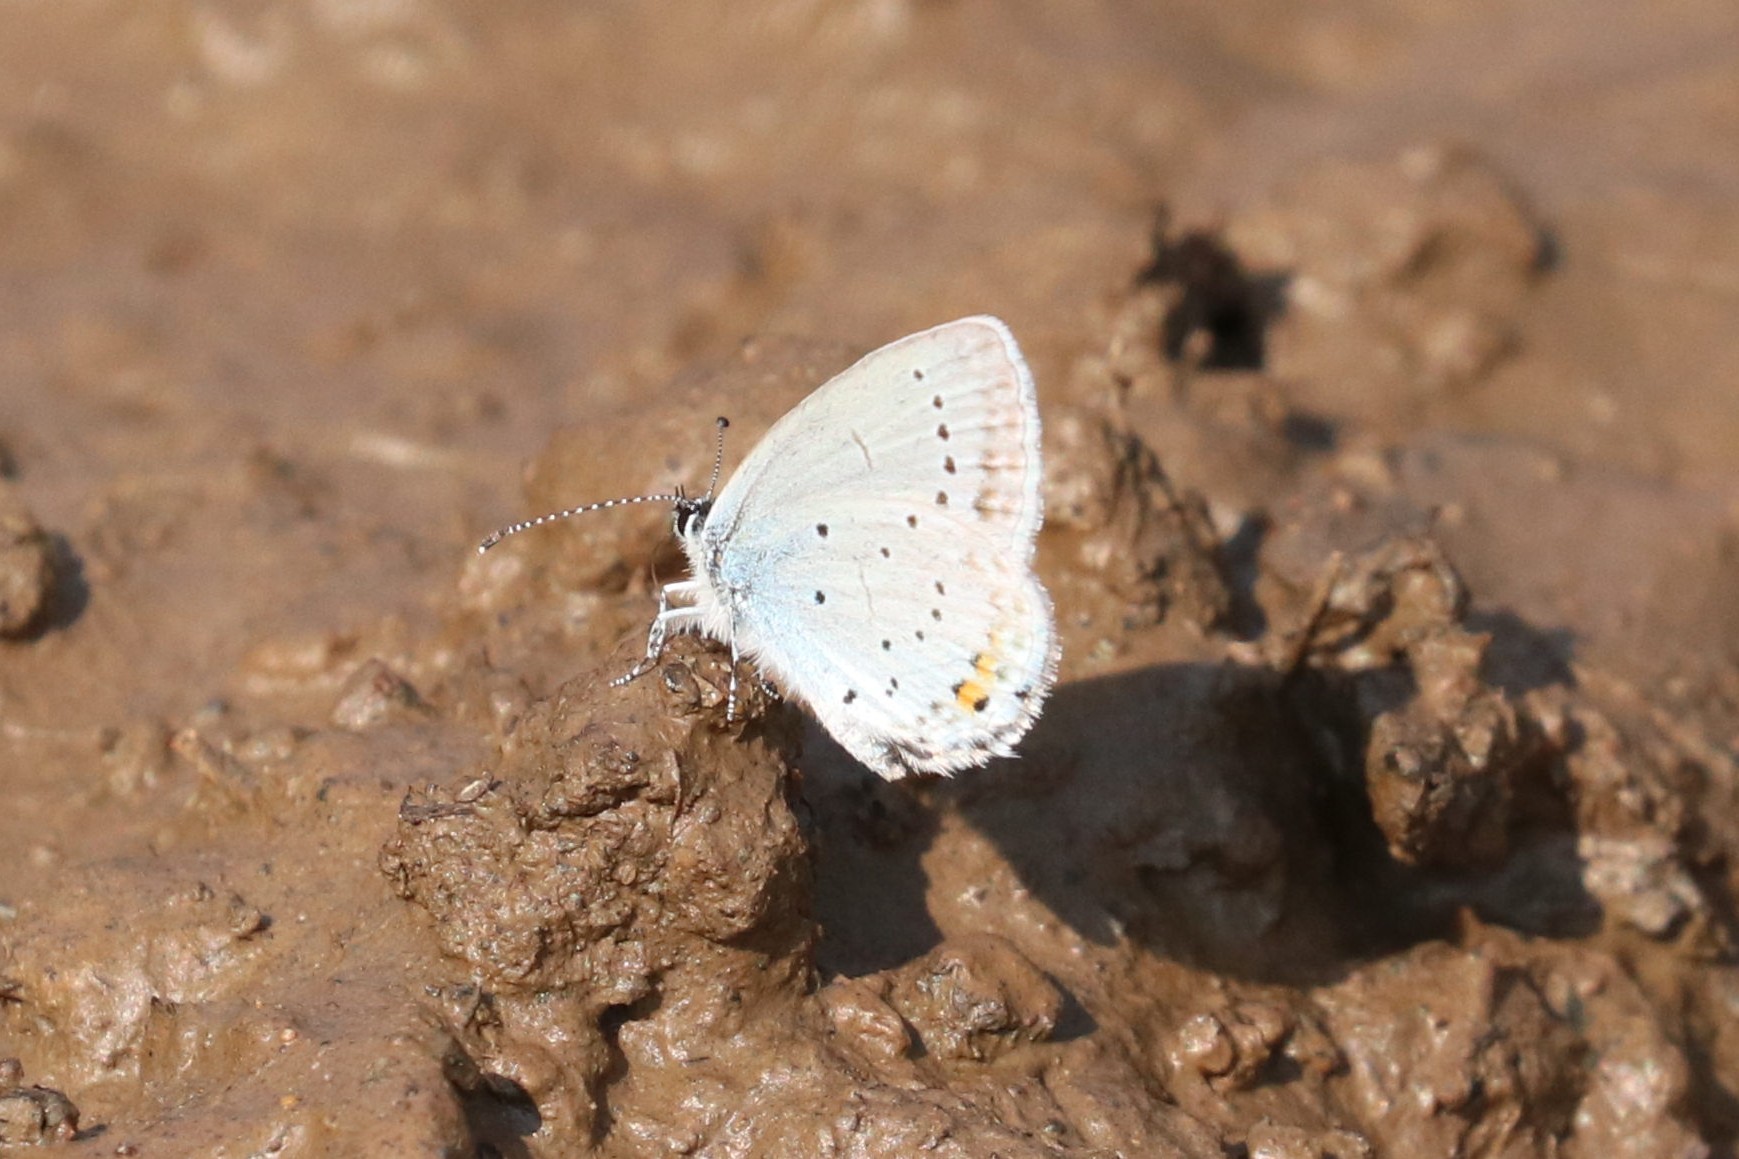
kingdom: Animalia
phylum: Arthropoda
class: Insecta
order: Lepidoptera
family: Lycaenidae
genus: Elkalyce
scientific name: Elkalyce argiades
